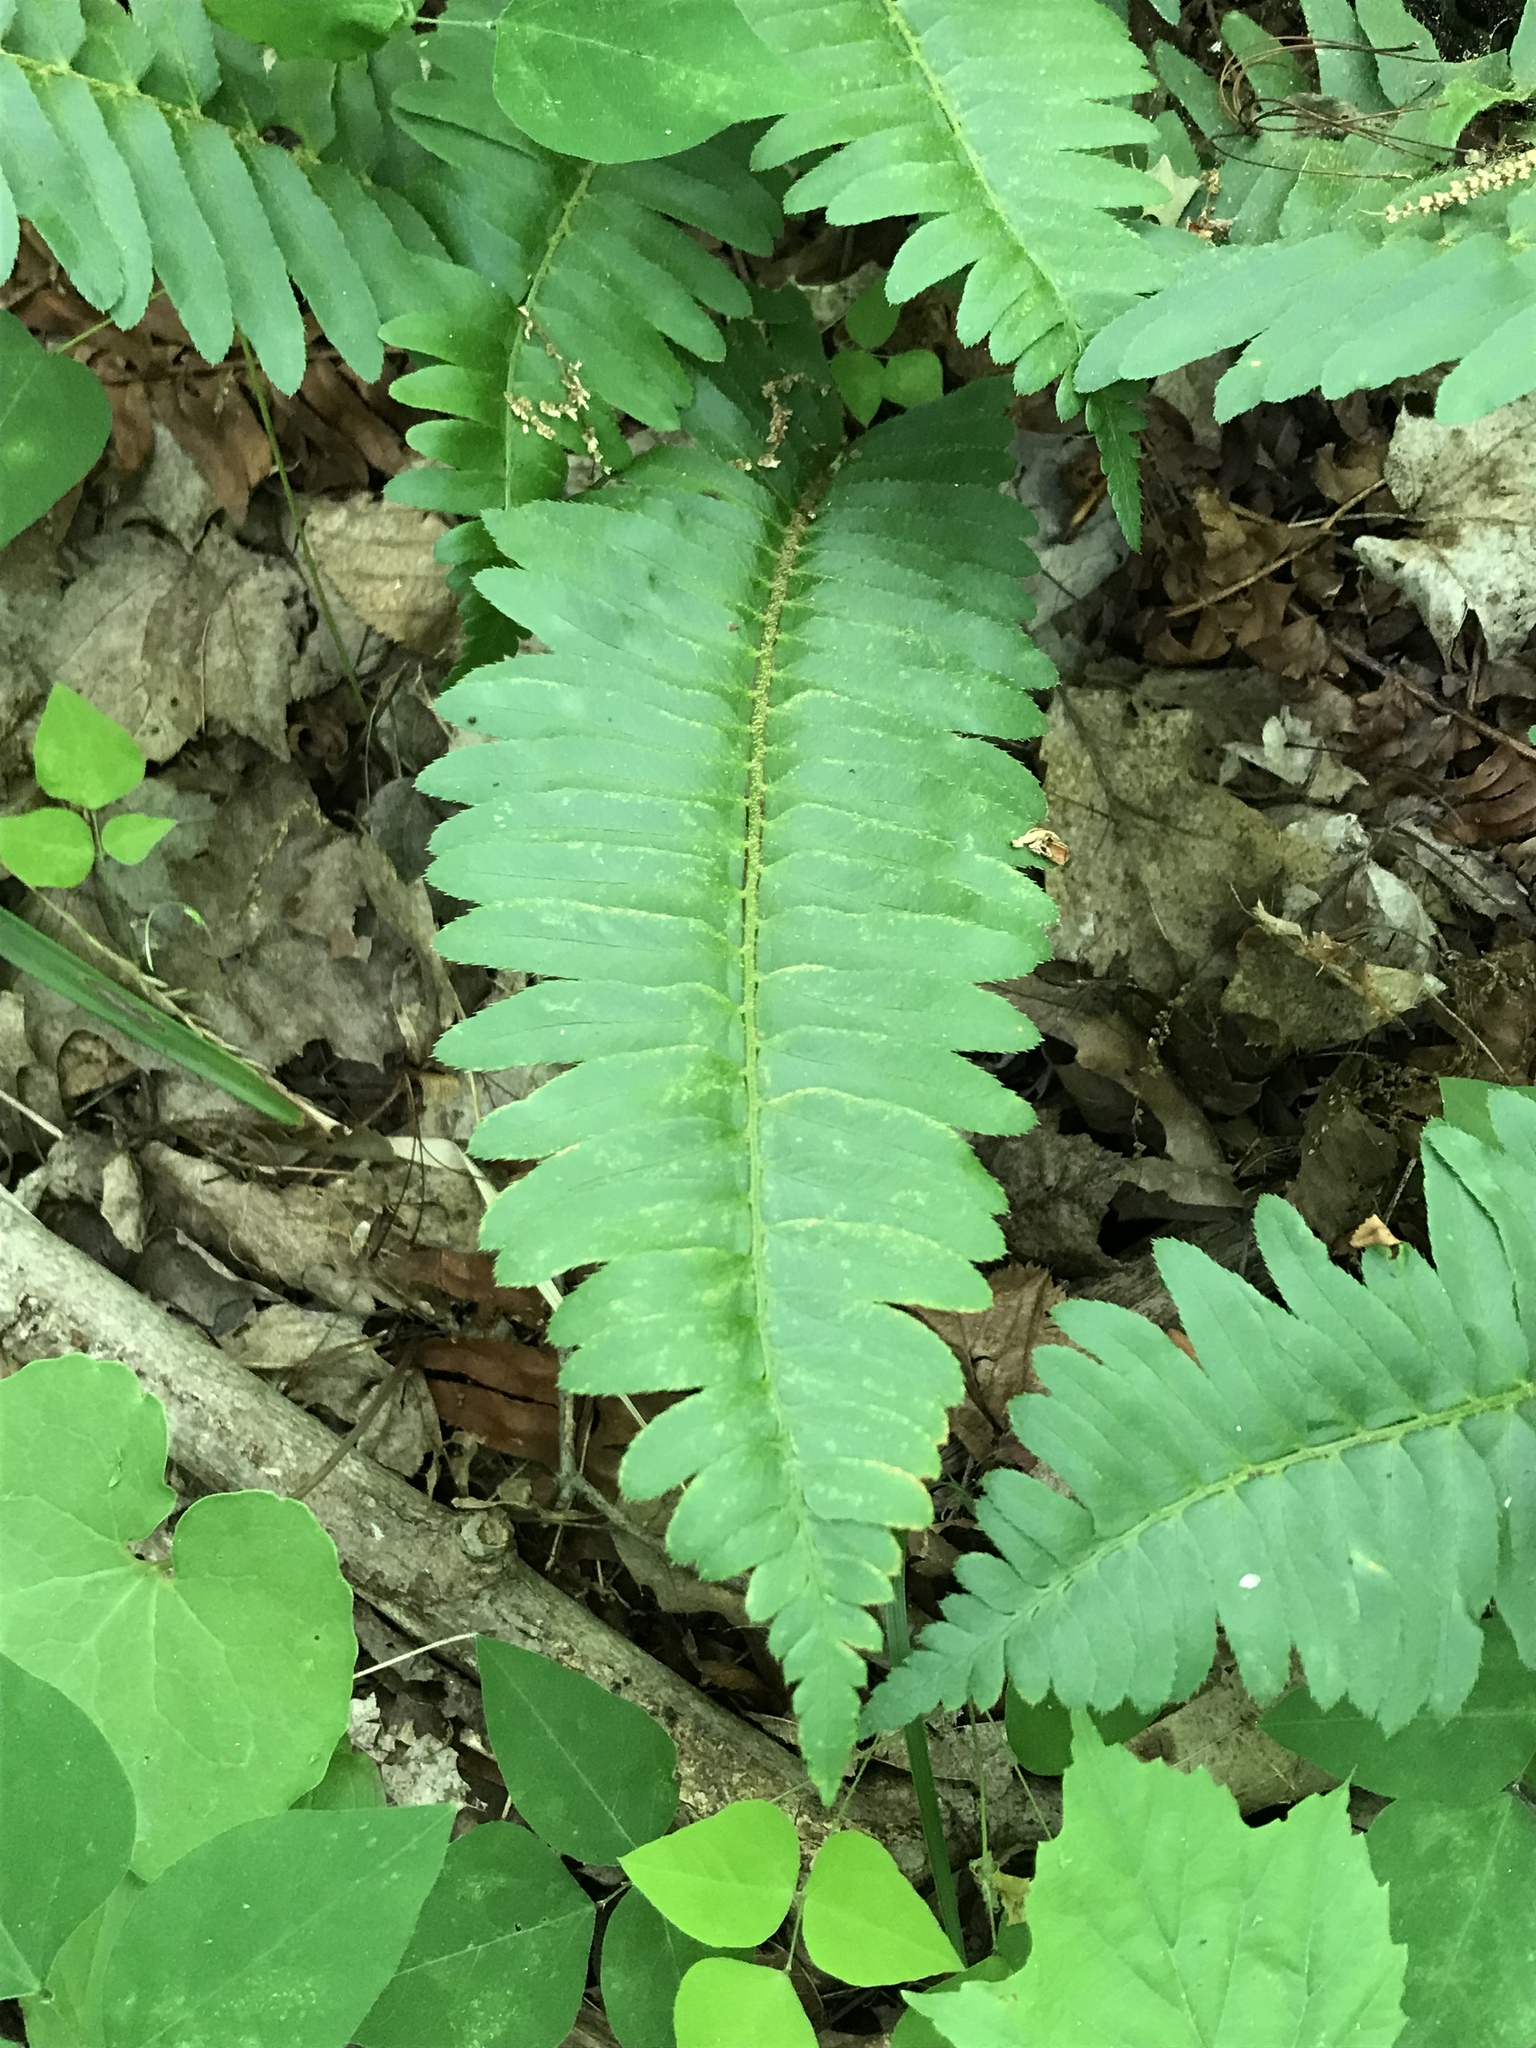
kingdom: Plantae
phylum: Tracheophyta
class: Polypodiopsida
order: Polypodiales
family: Dryopteridaceae
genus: Polystichum
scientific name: Polystichum acrostichoides
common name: Christmas fern
